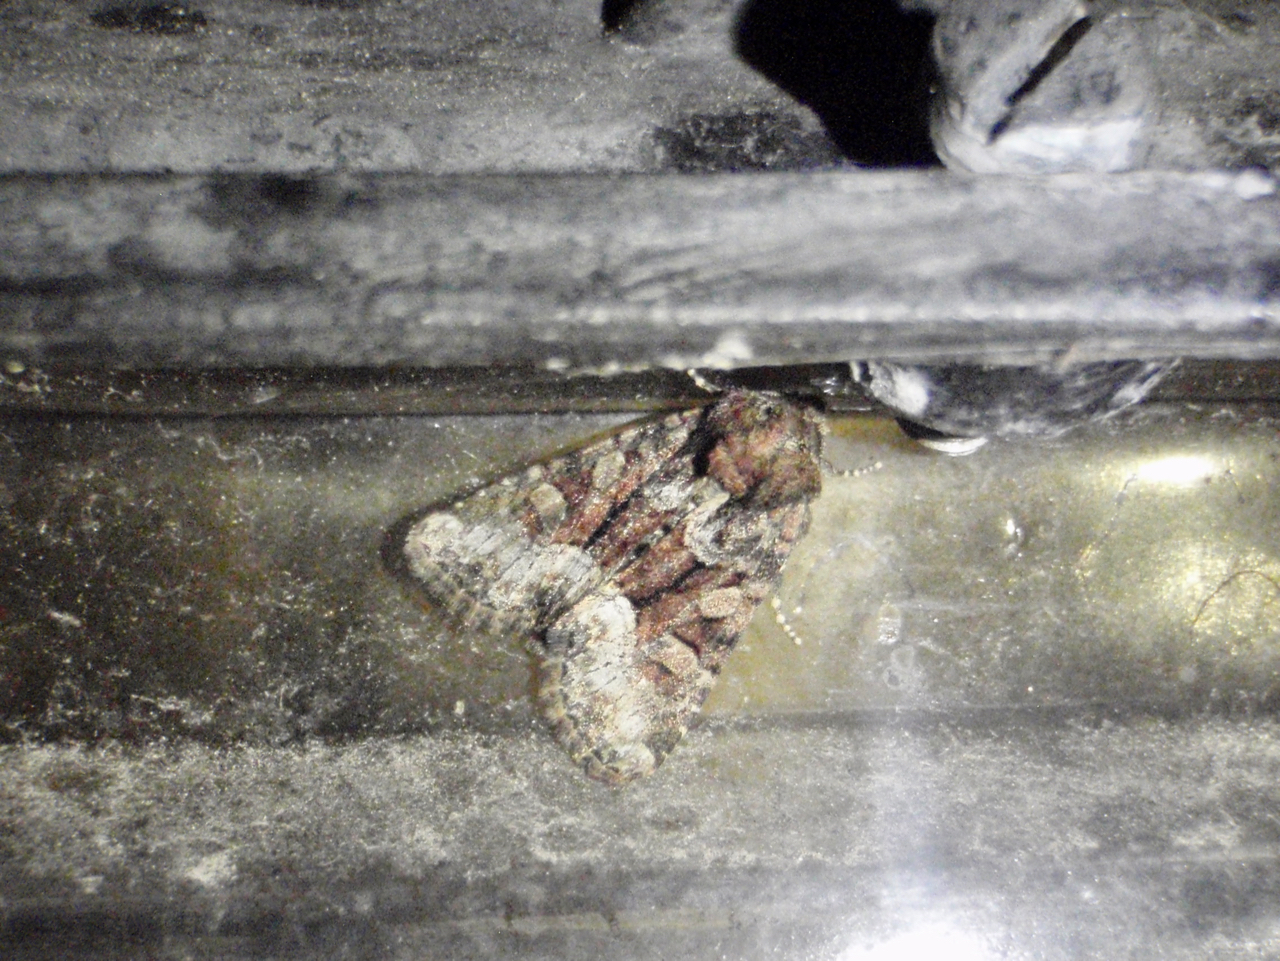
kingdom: Animalia
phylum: Arthropoda
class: Insecta
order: Lepidoptera
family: Noctuidae
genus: Oligia
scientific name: Oligia
